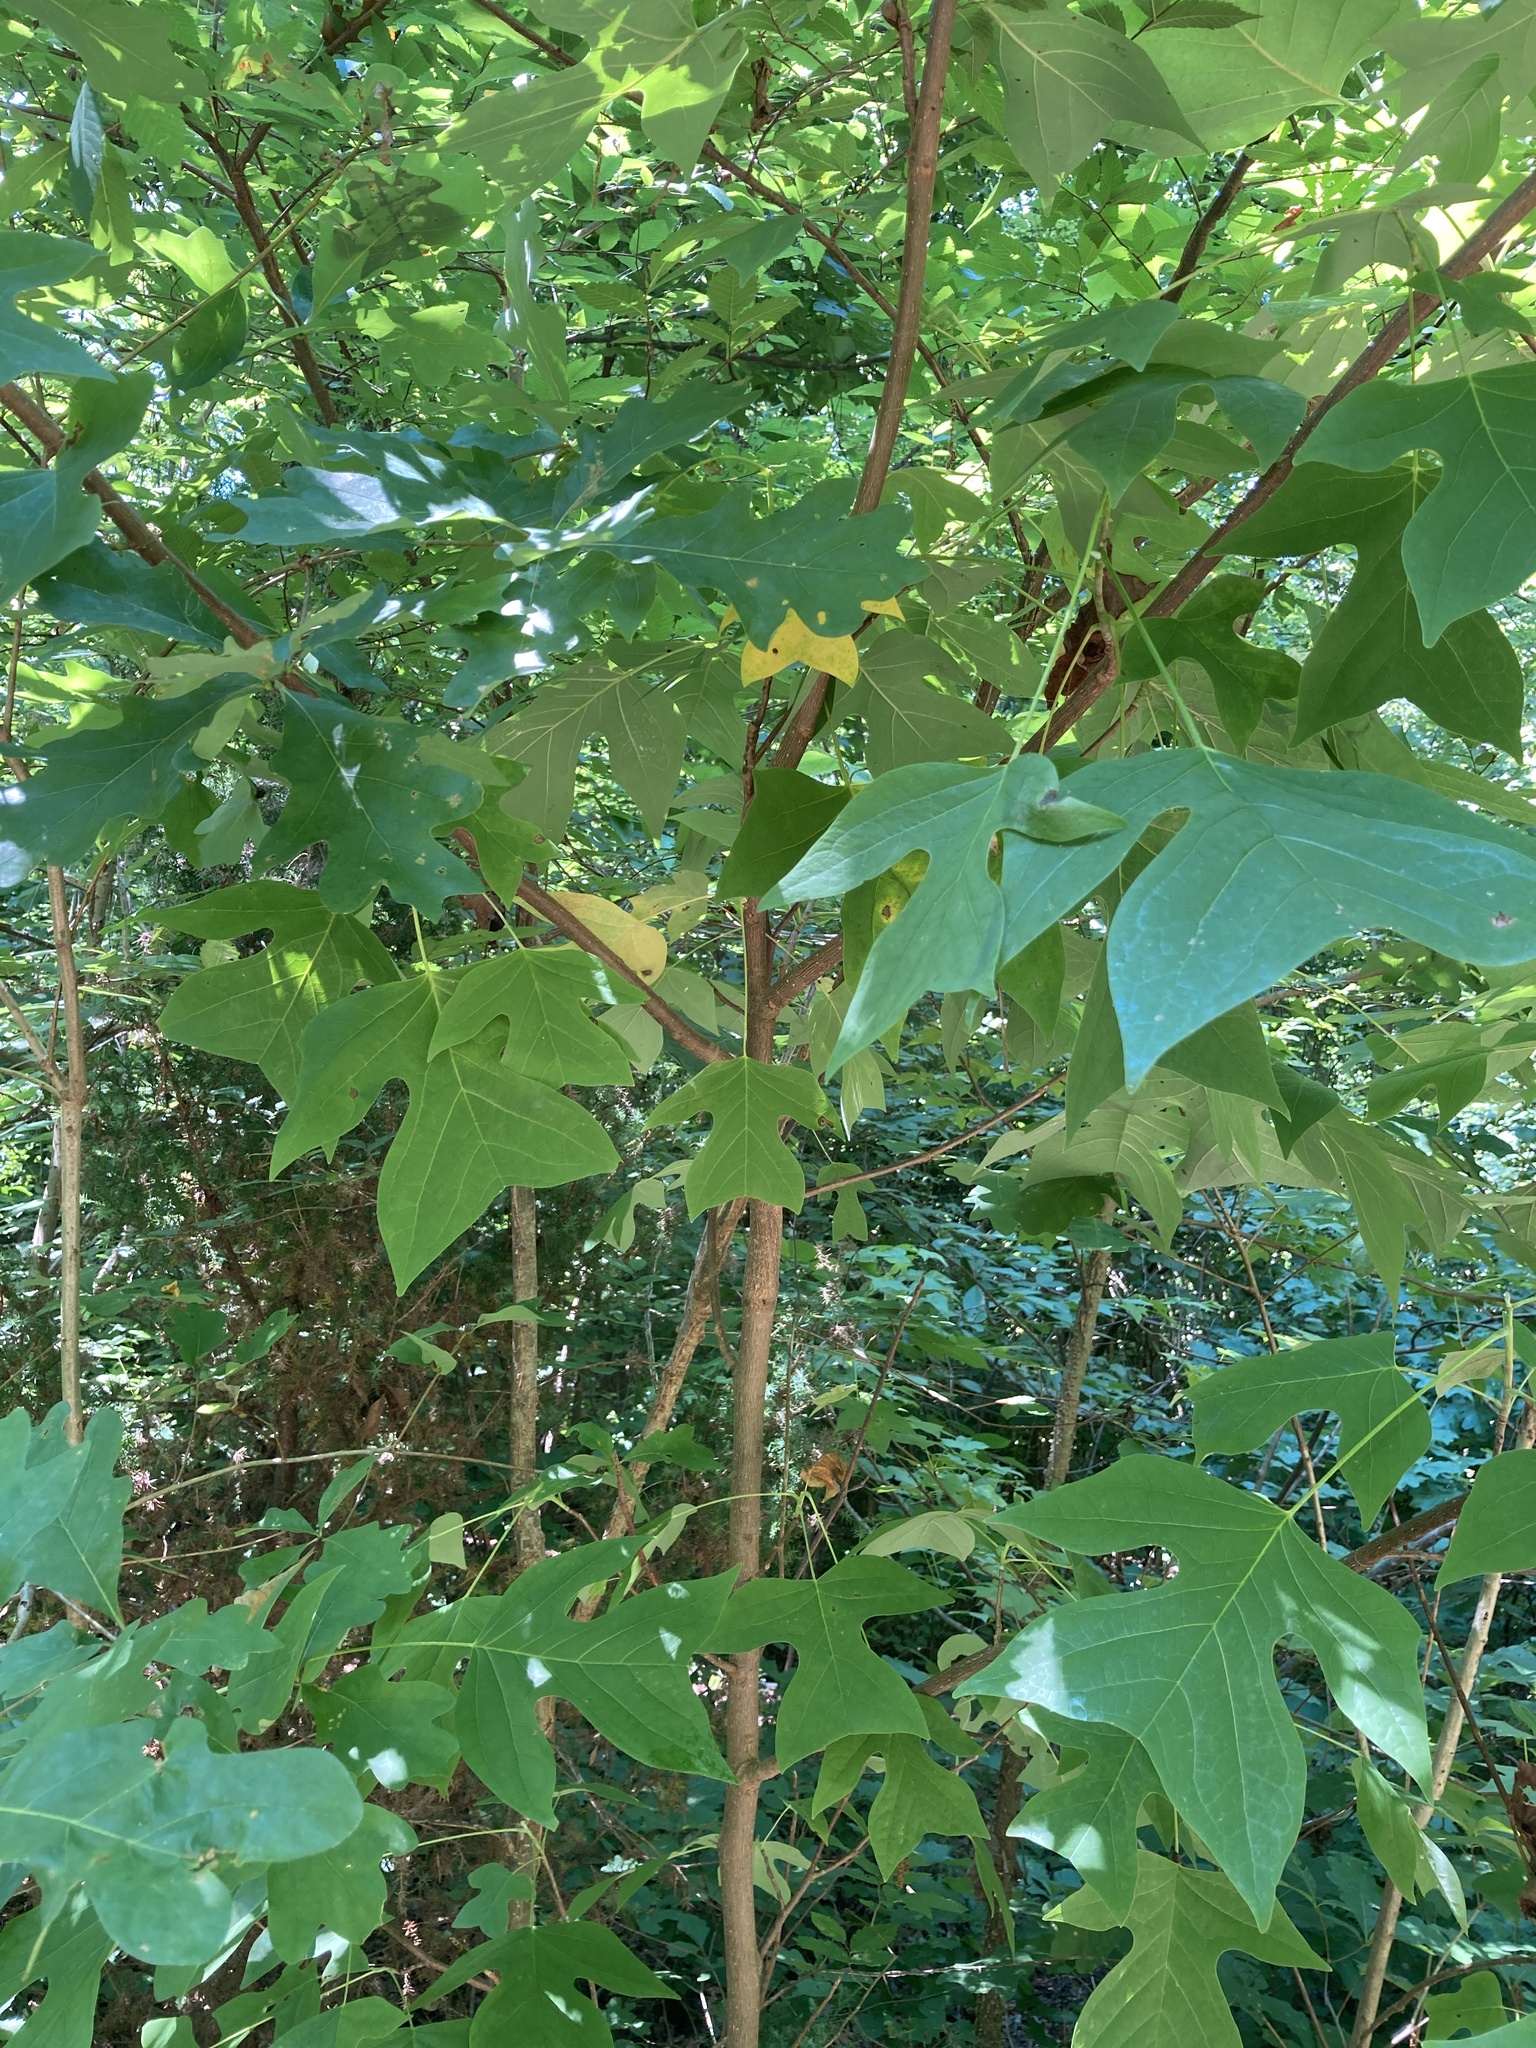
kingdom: Plantae
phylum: Tracheophyta
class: Magnoliopsida
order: Magnoliales
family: Magnoliaceae
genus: Liriodendron
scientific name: Liriodendron tulipifera
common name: Tulip tree
